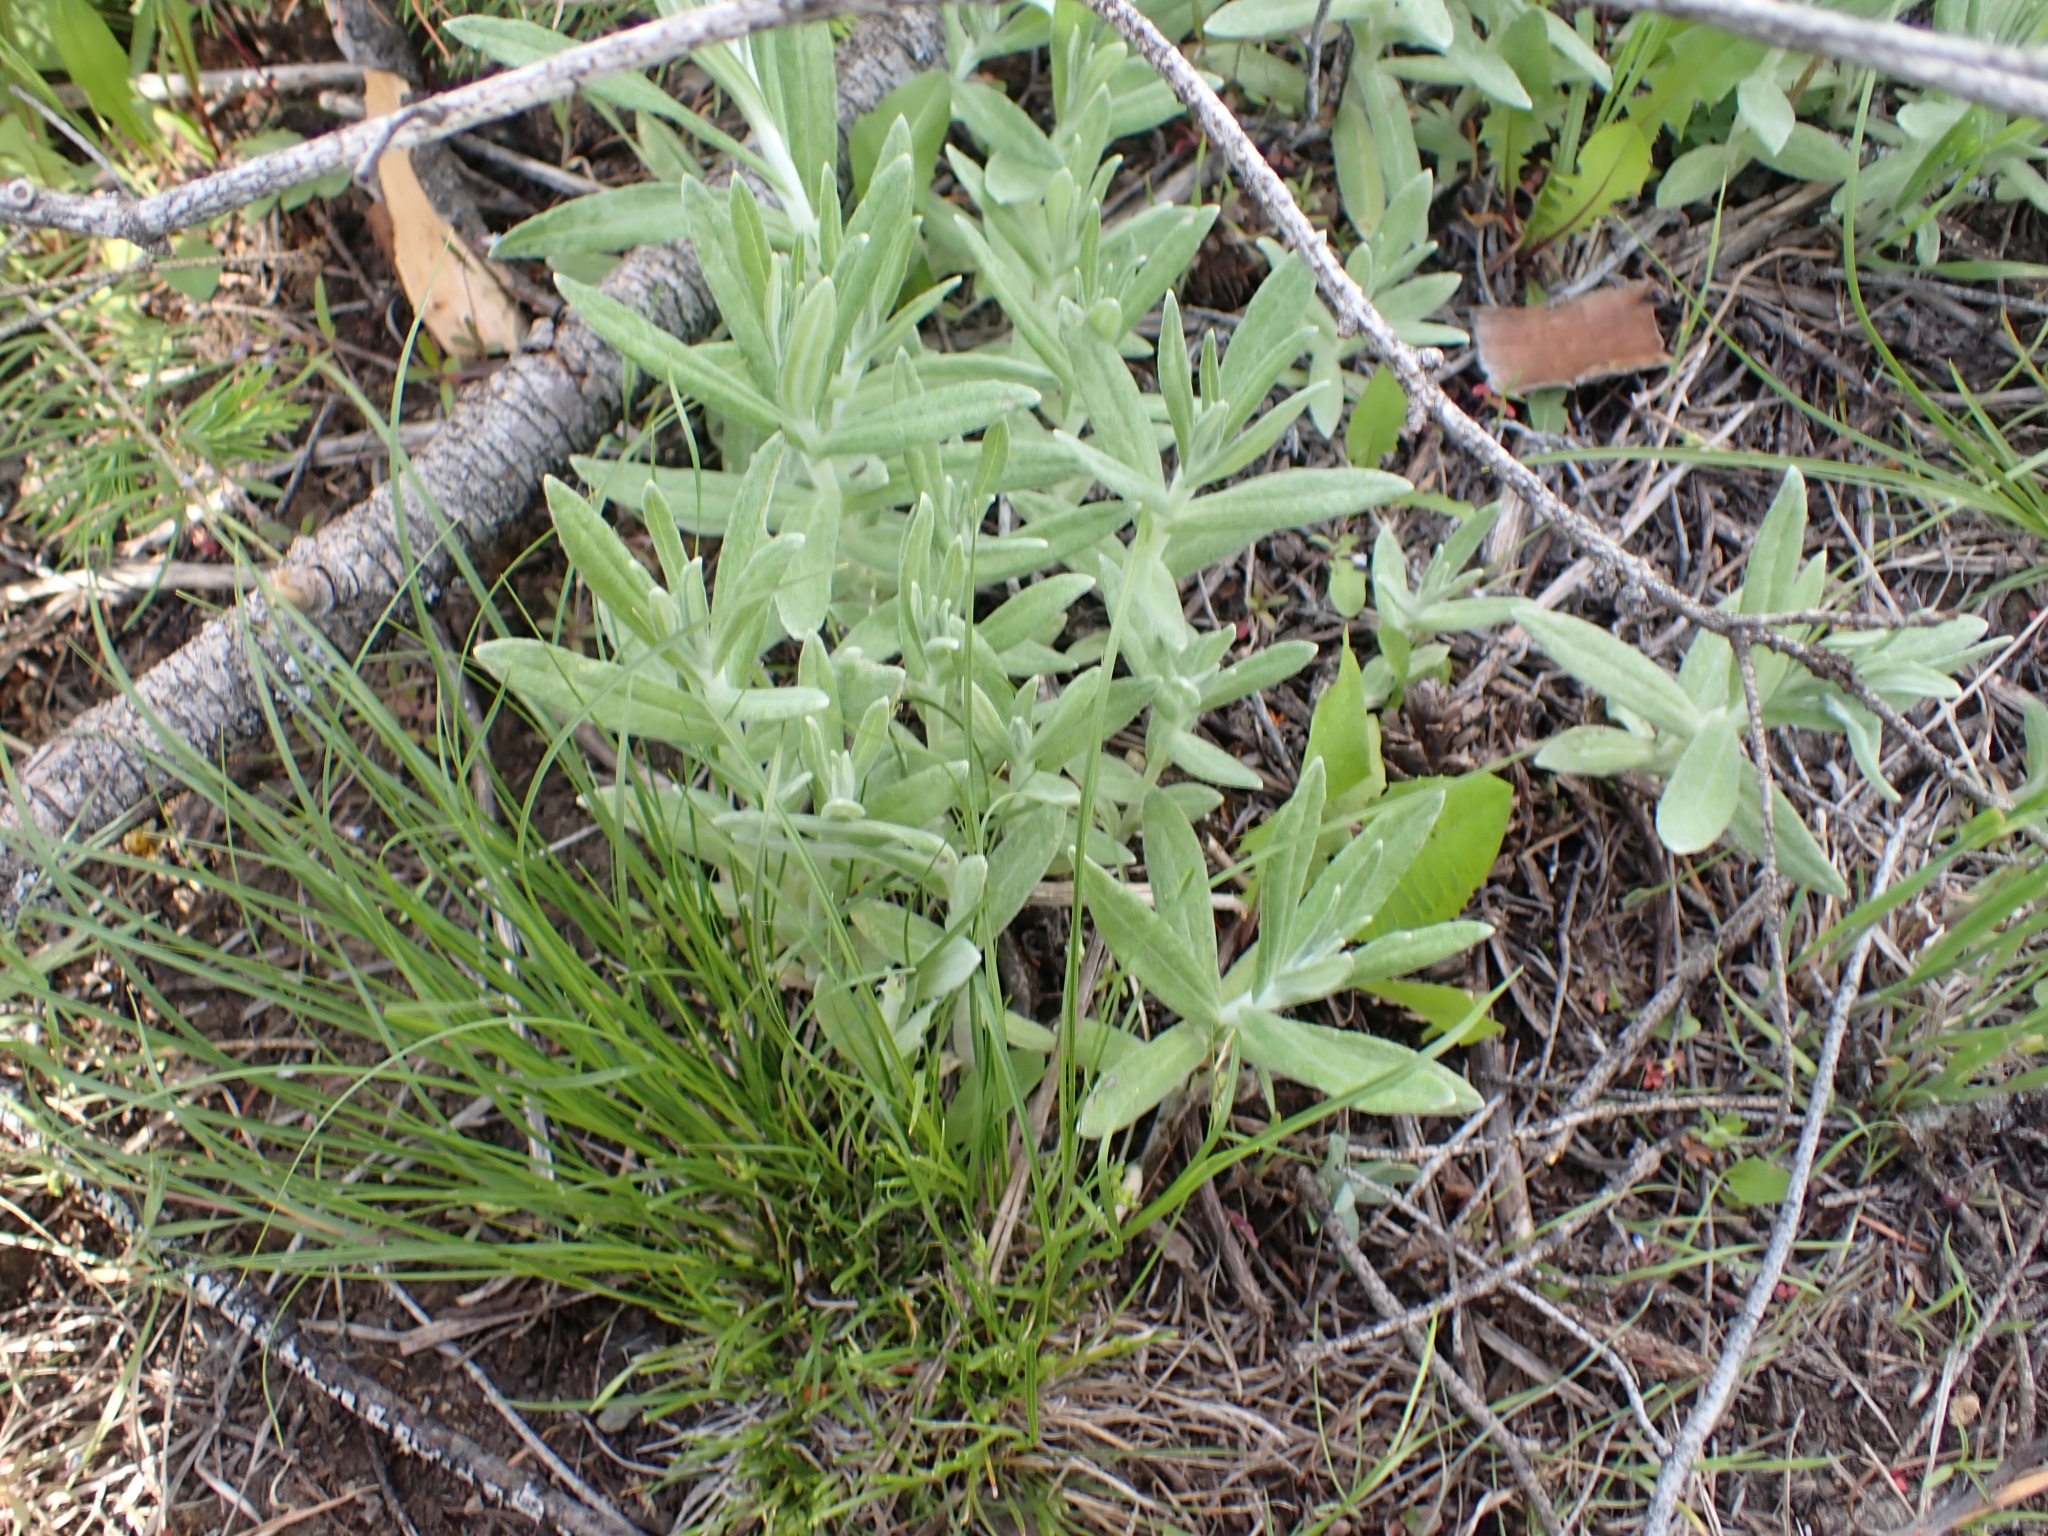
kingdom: Plantae
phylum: Tracheophyta
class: Magnoliopsida
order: Asterales
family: Asteraceae
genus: Anaphalis
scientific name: Anaphalis margaritacea
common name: Pearly everlasting
